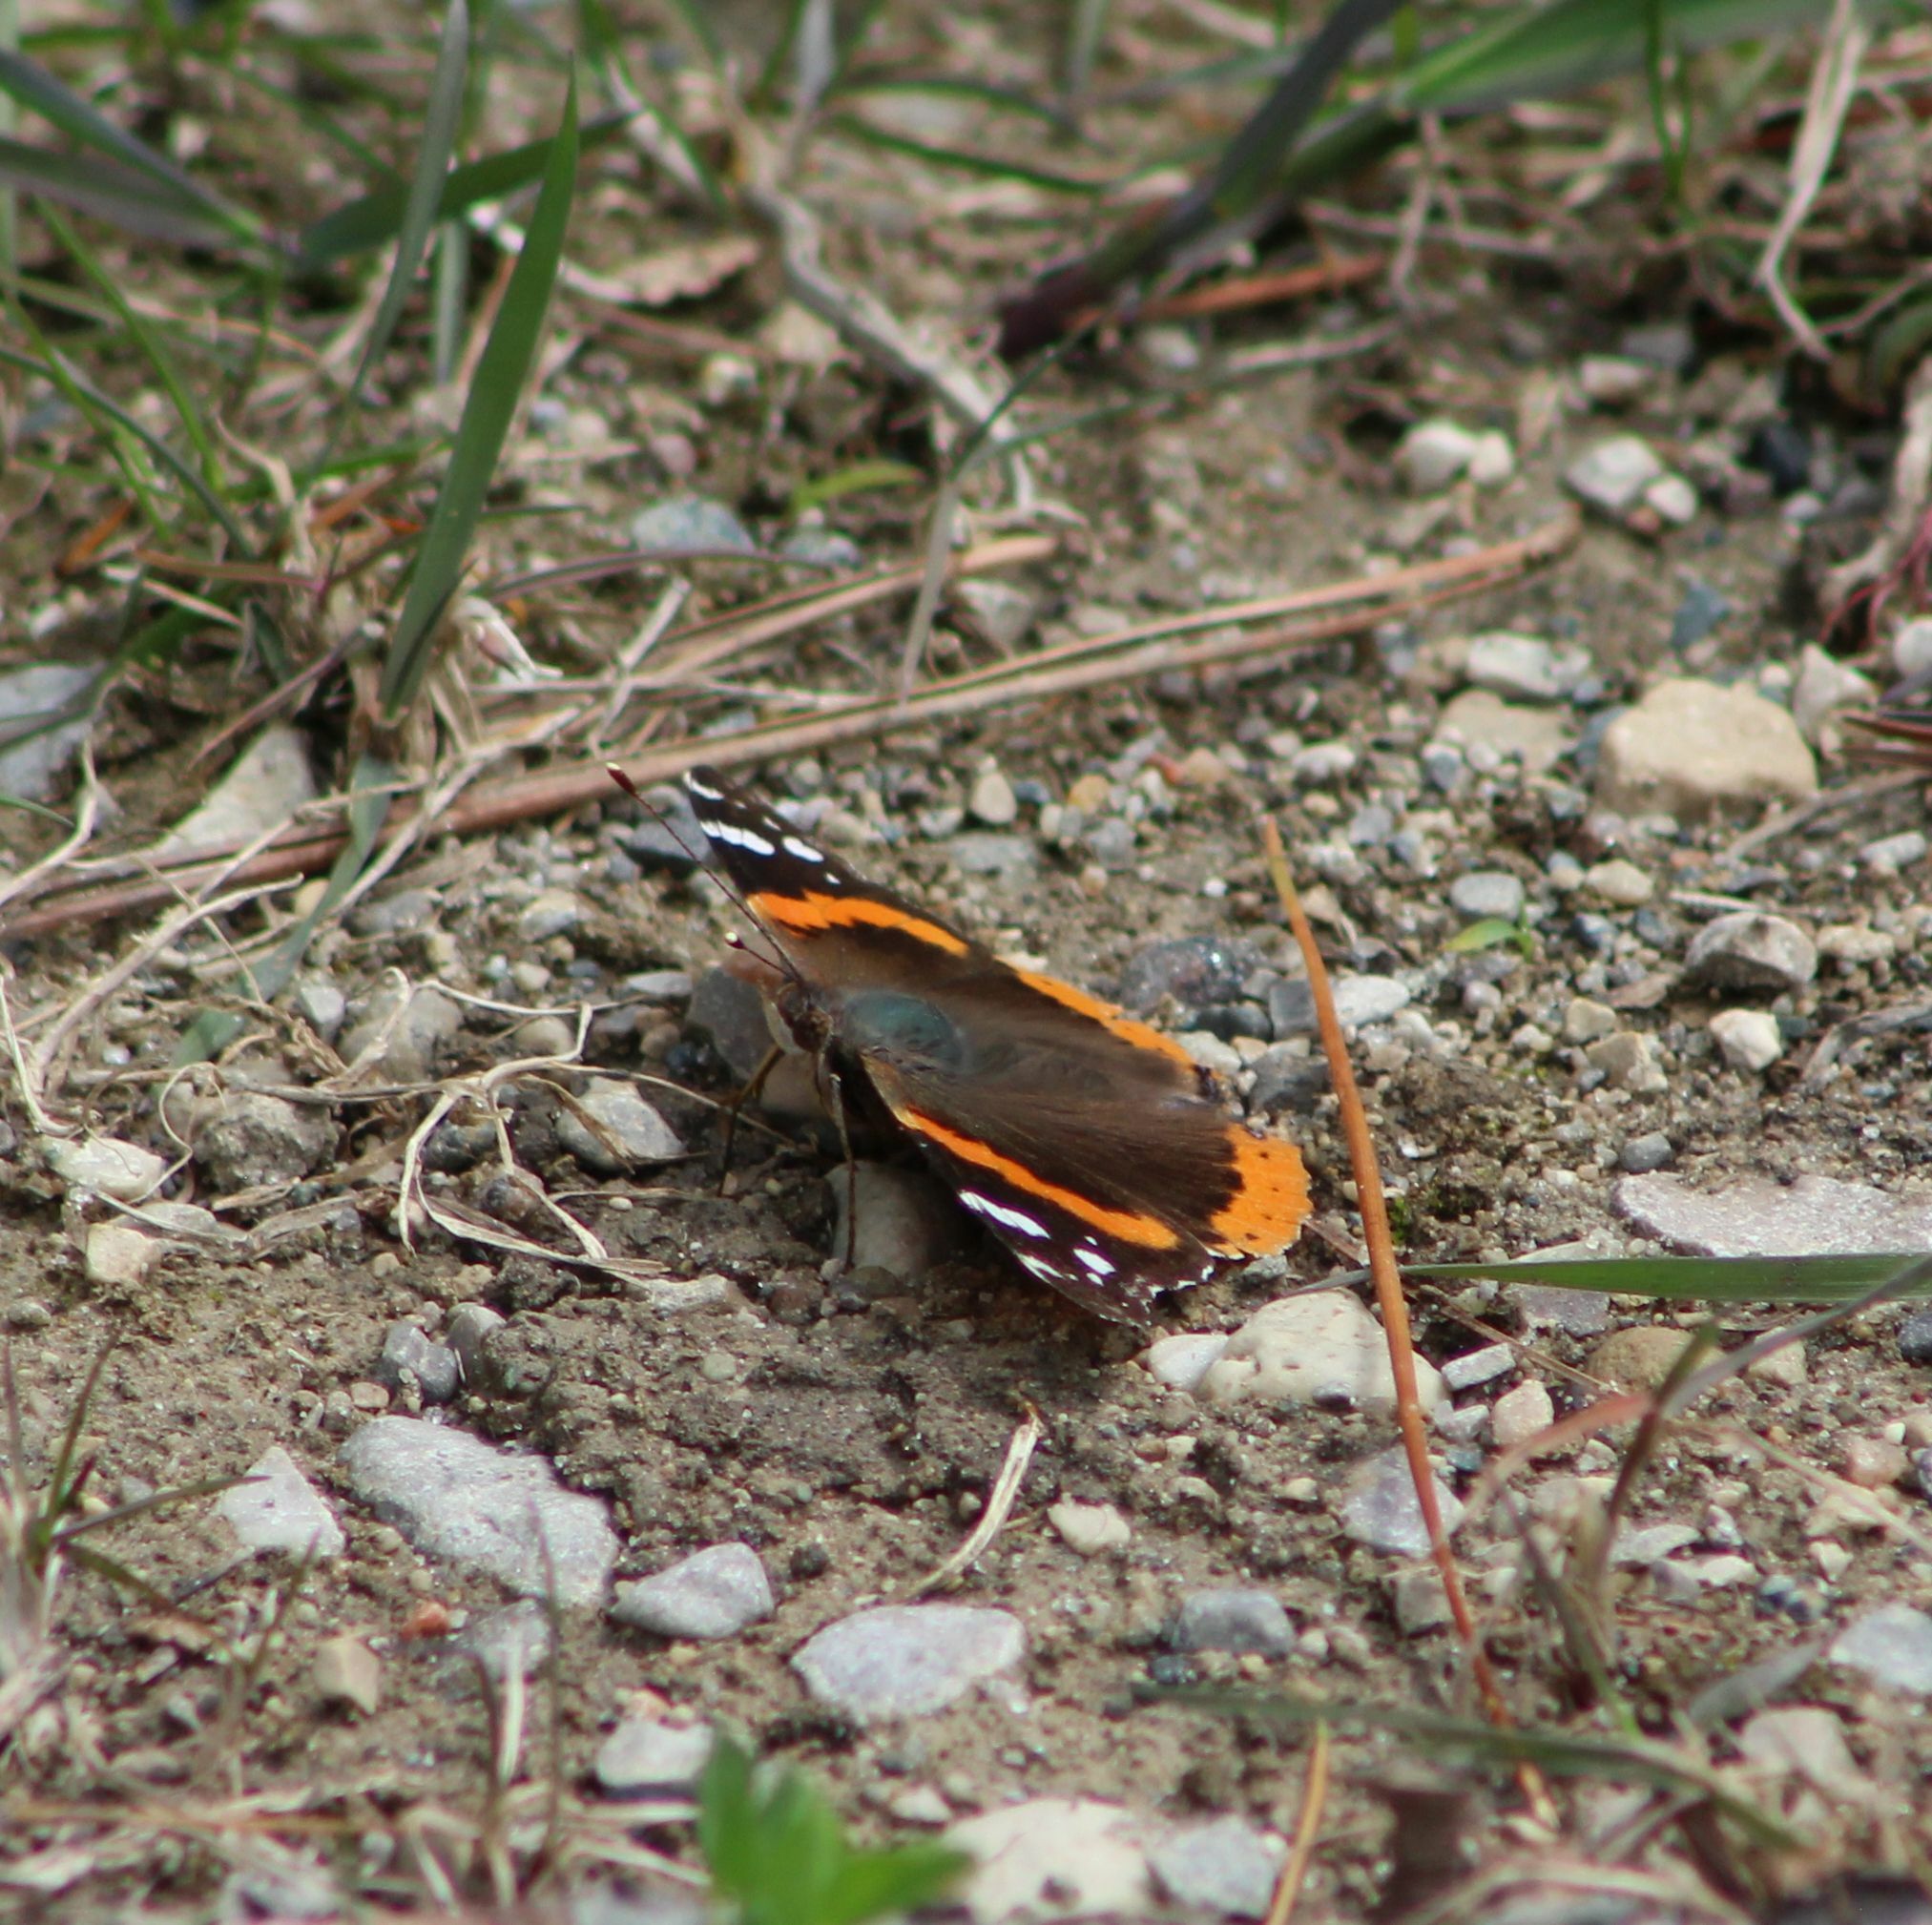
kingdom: Animalia
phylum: Arthropoda
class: Insecta
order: Lepidoptera
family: Nymphalidae
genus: Vanessa
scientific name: Vanessa atalanta
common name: Red admiral
